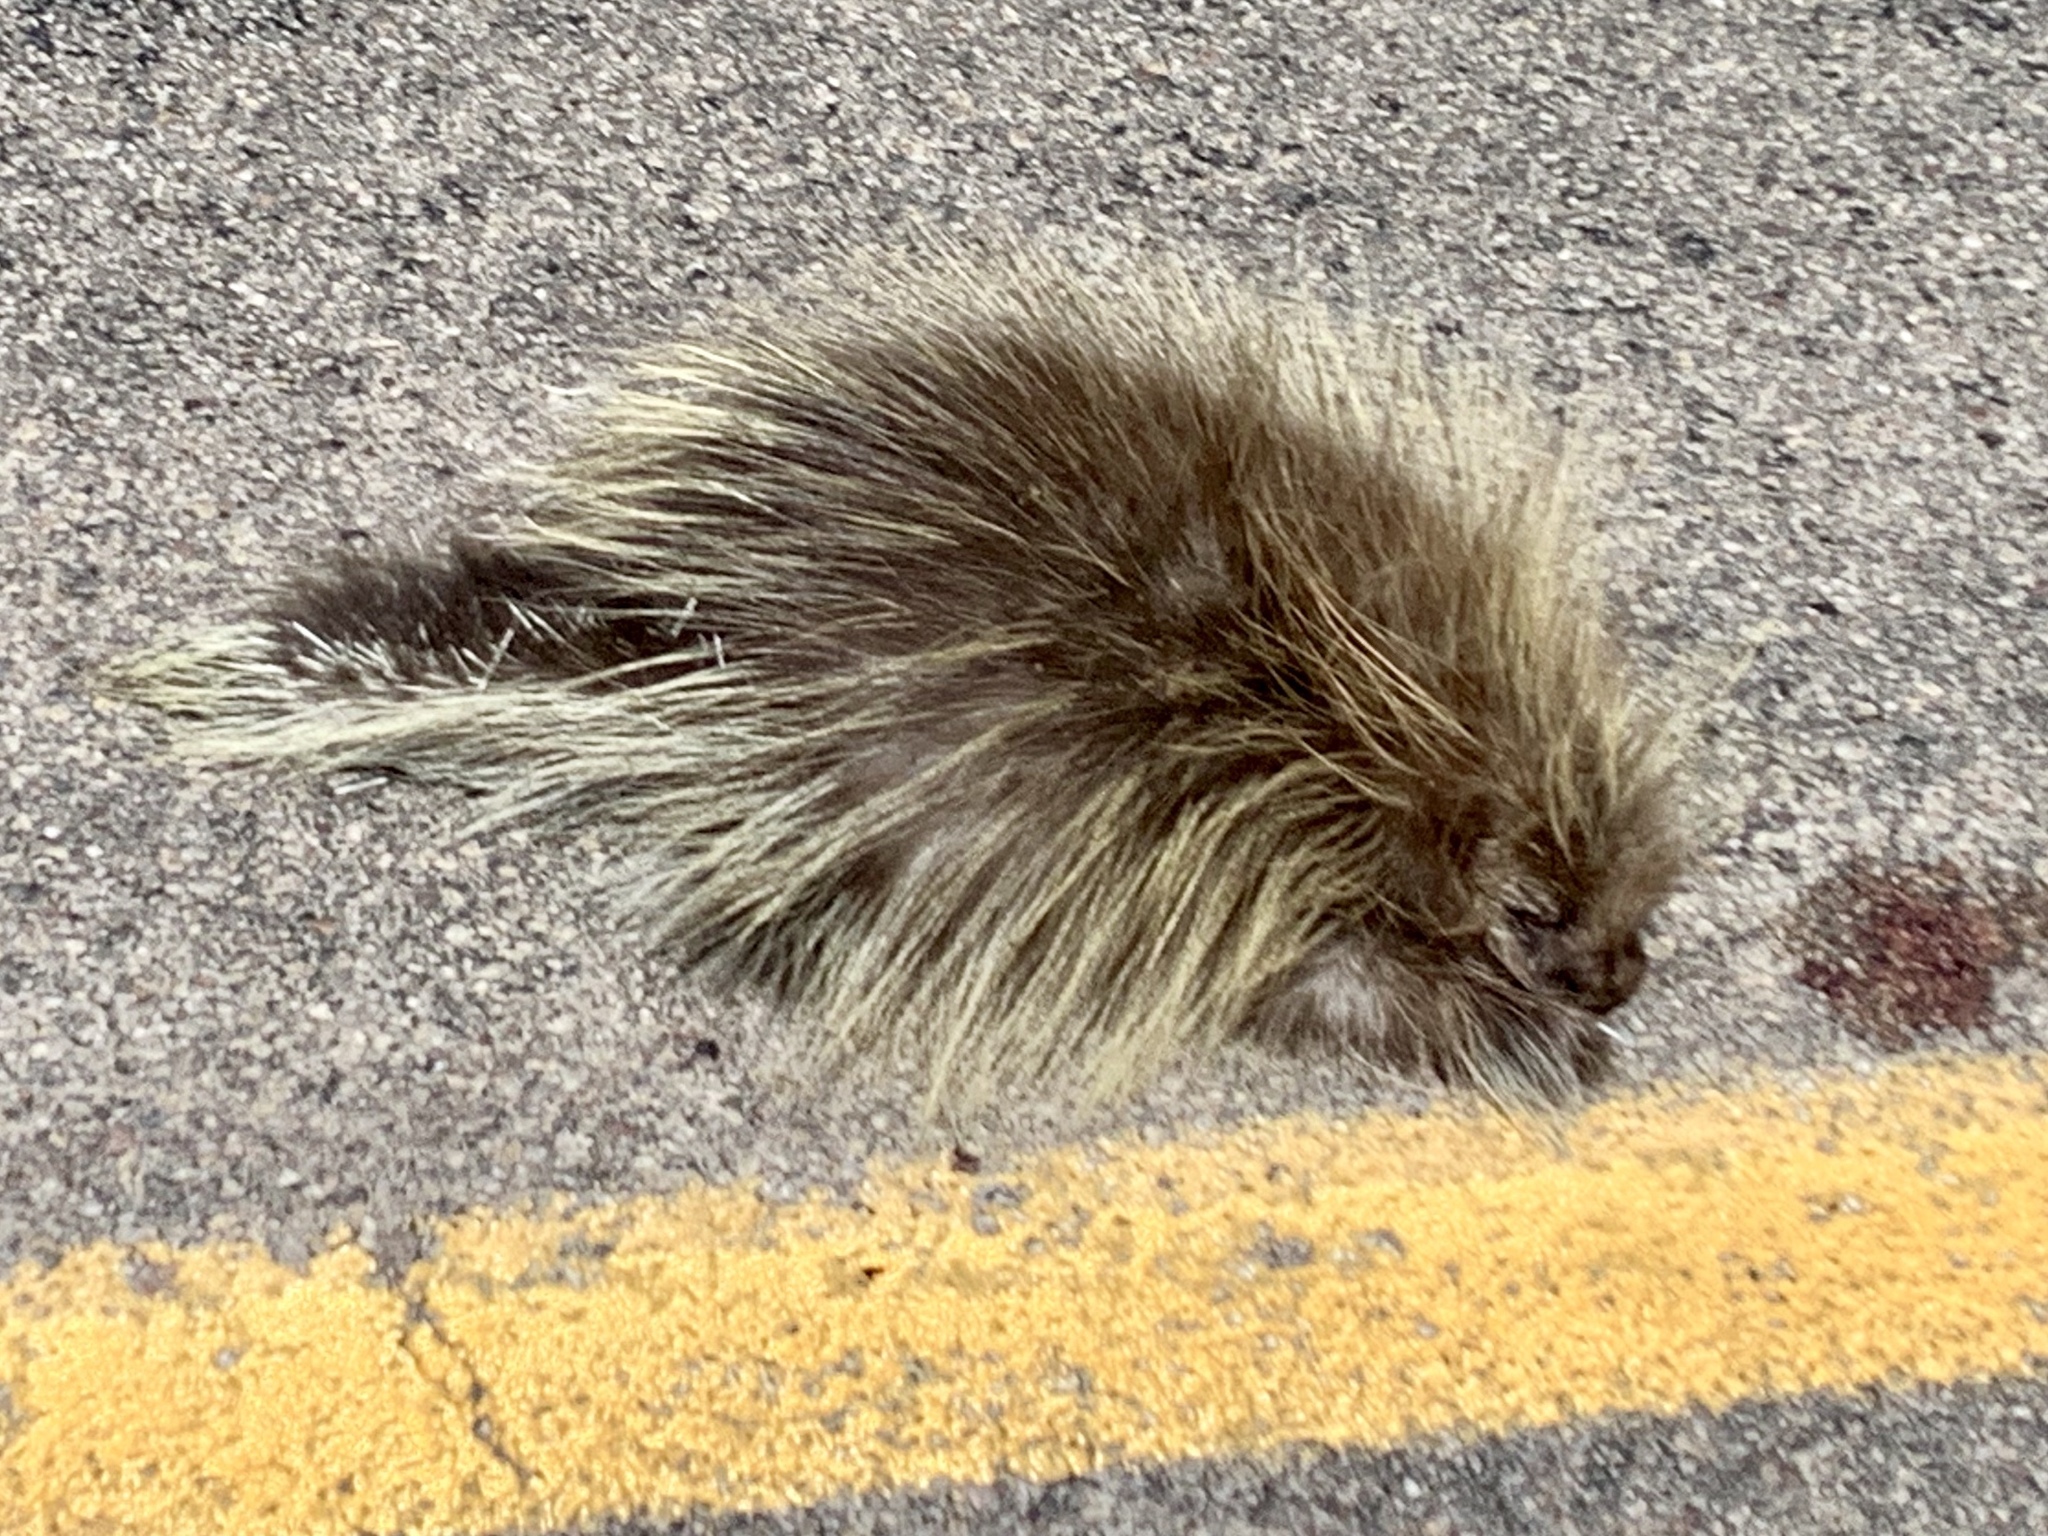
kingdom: Animalia
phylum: Chordata
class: Mammalia
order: Rodentia
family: Erethizontidae
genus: Erethizon
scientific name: Erethizon dorsatus
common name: North american porcupine
